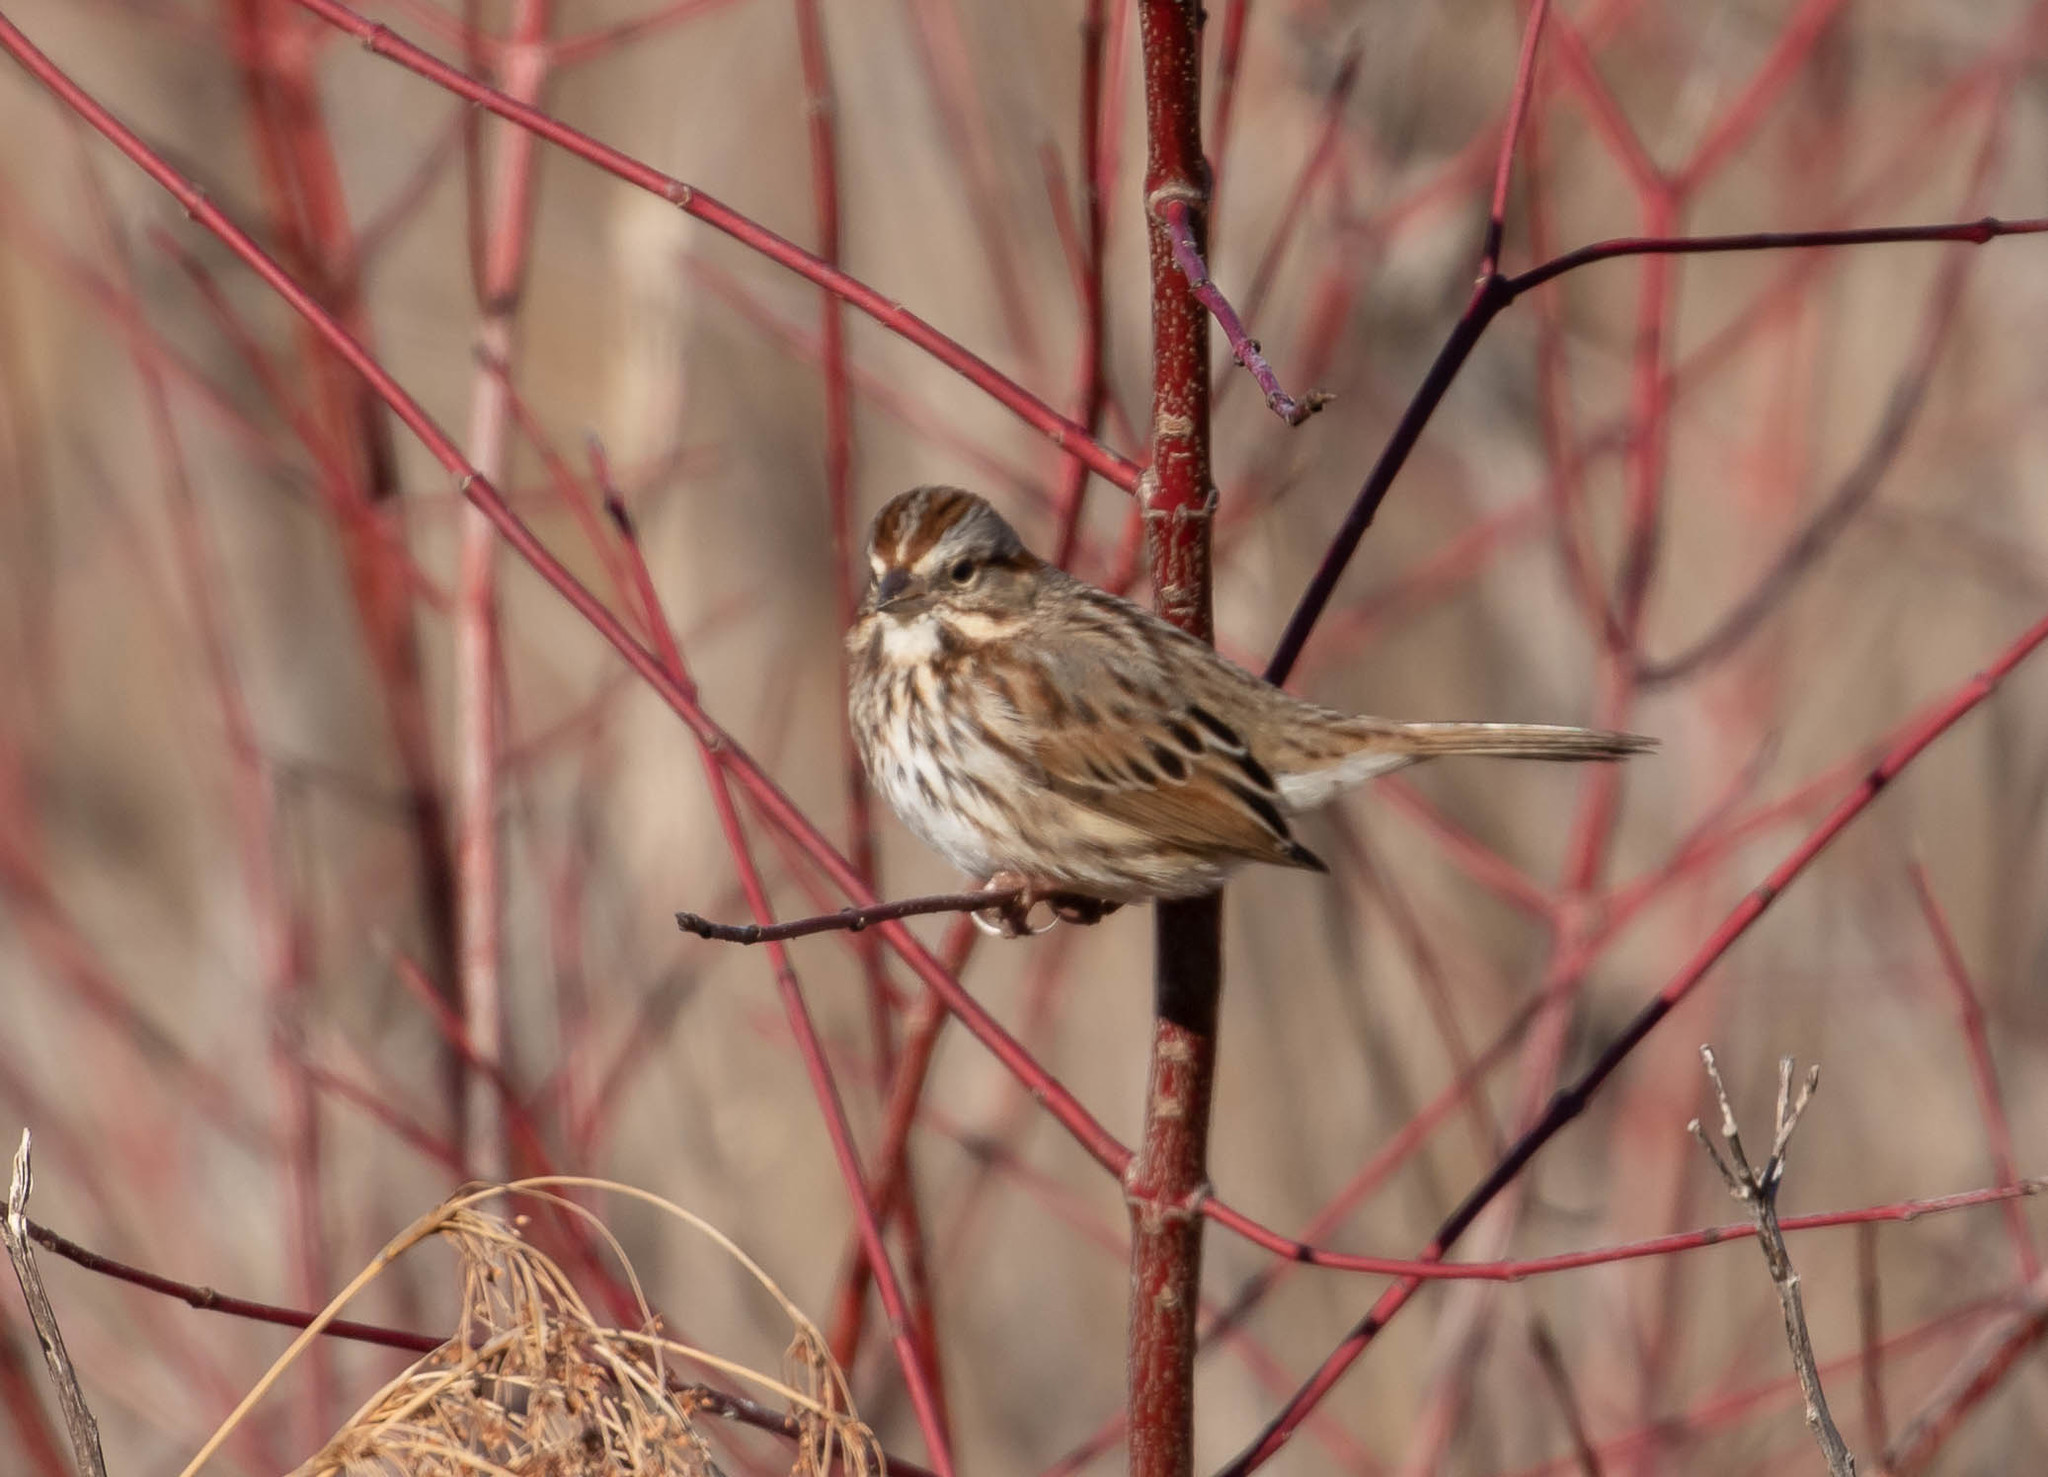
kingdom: Animalia
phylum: Chordata
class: Aves
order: Passeriformes
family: Passerellidae
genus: Melospiza
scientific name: Melospiza melodia
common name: Song sparrow
